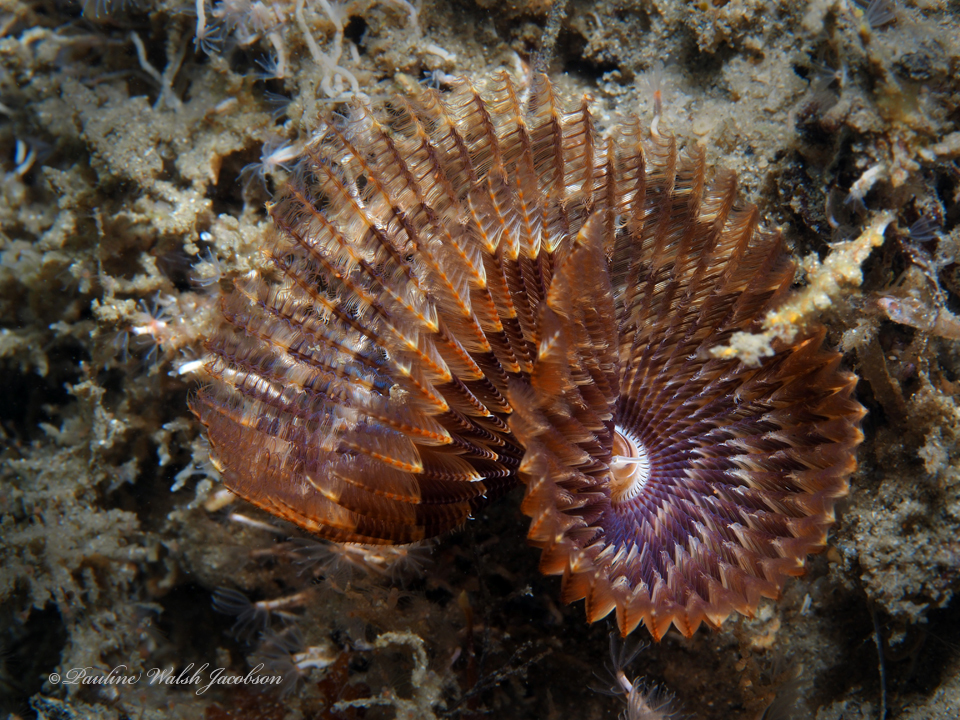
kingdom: Animalia
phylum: Annelida
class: Polychaeta
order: Sabellida
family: Sabellidae
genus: Branchiomma
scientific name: Branchiomma nigromaculatum
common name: Black-spotted feather duster
